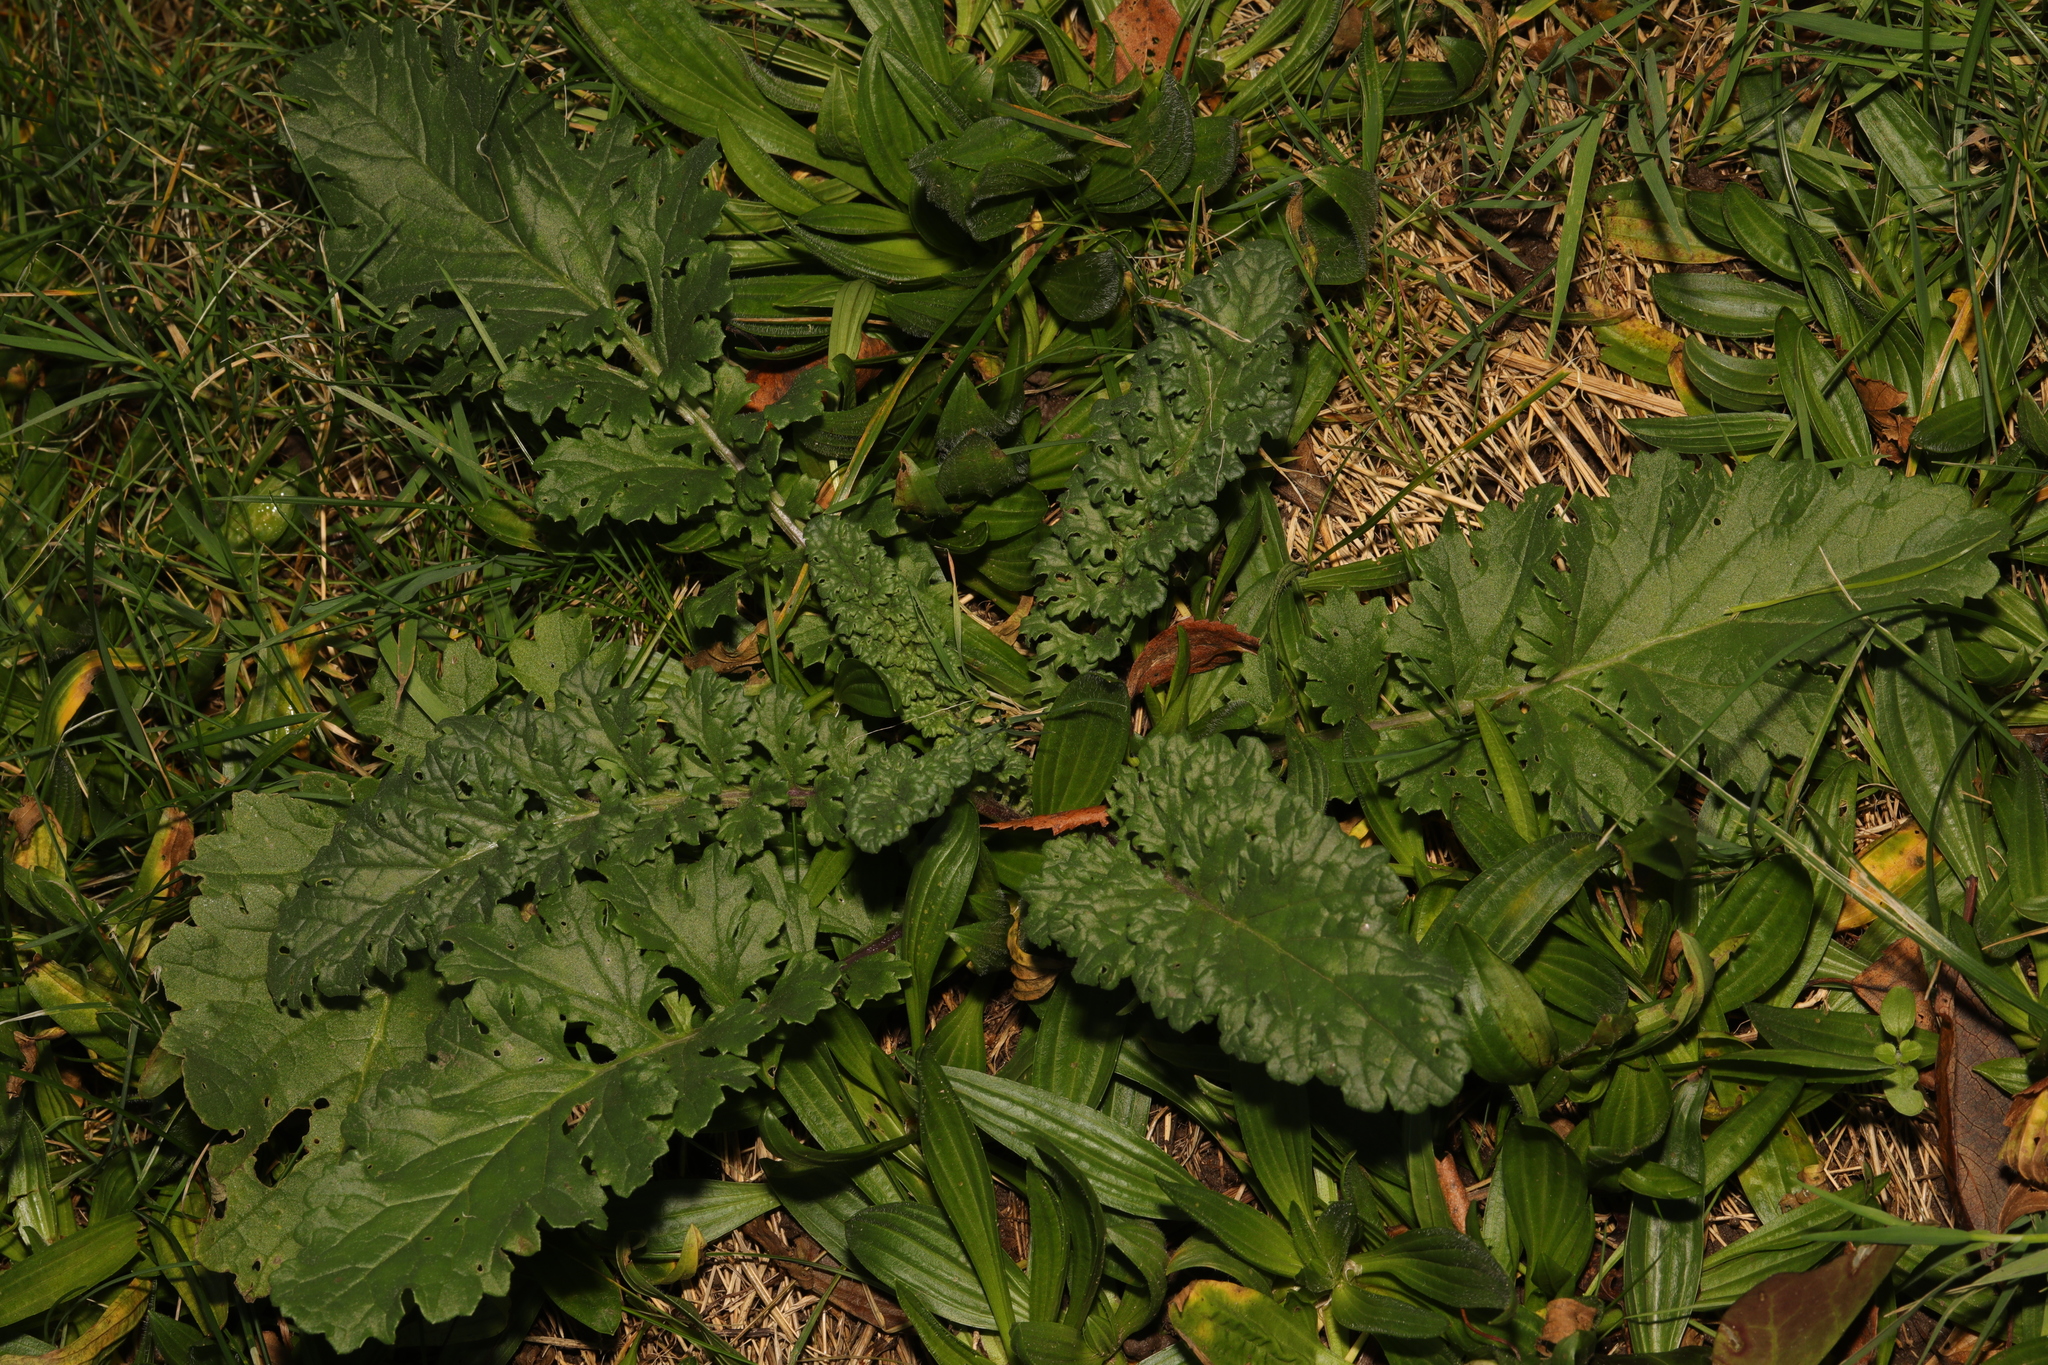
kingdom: Plantae
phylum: Tracheophyta
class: Magnoliopsida
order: Asterales
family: Asteraceae
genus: Jacobaea
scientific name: Jacobaea vulgaris
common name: Stinking willie
